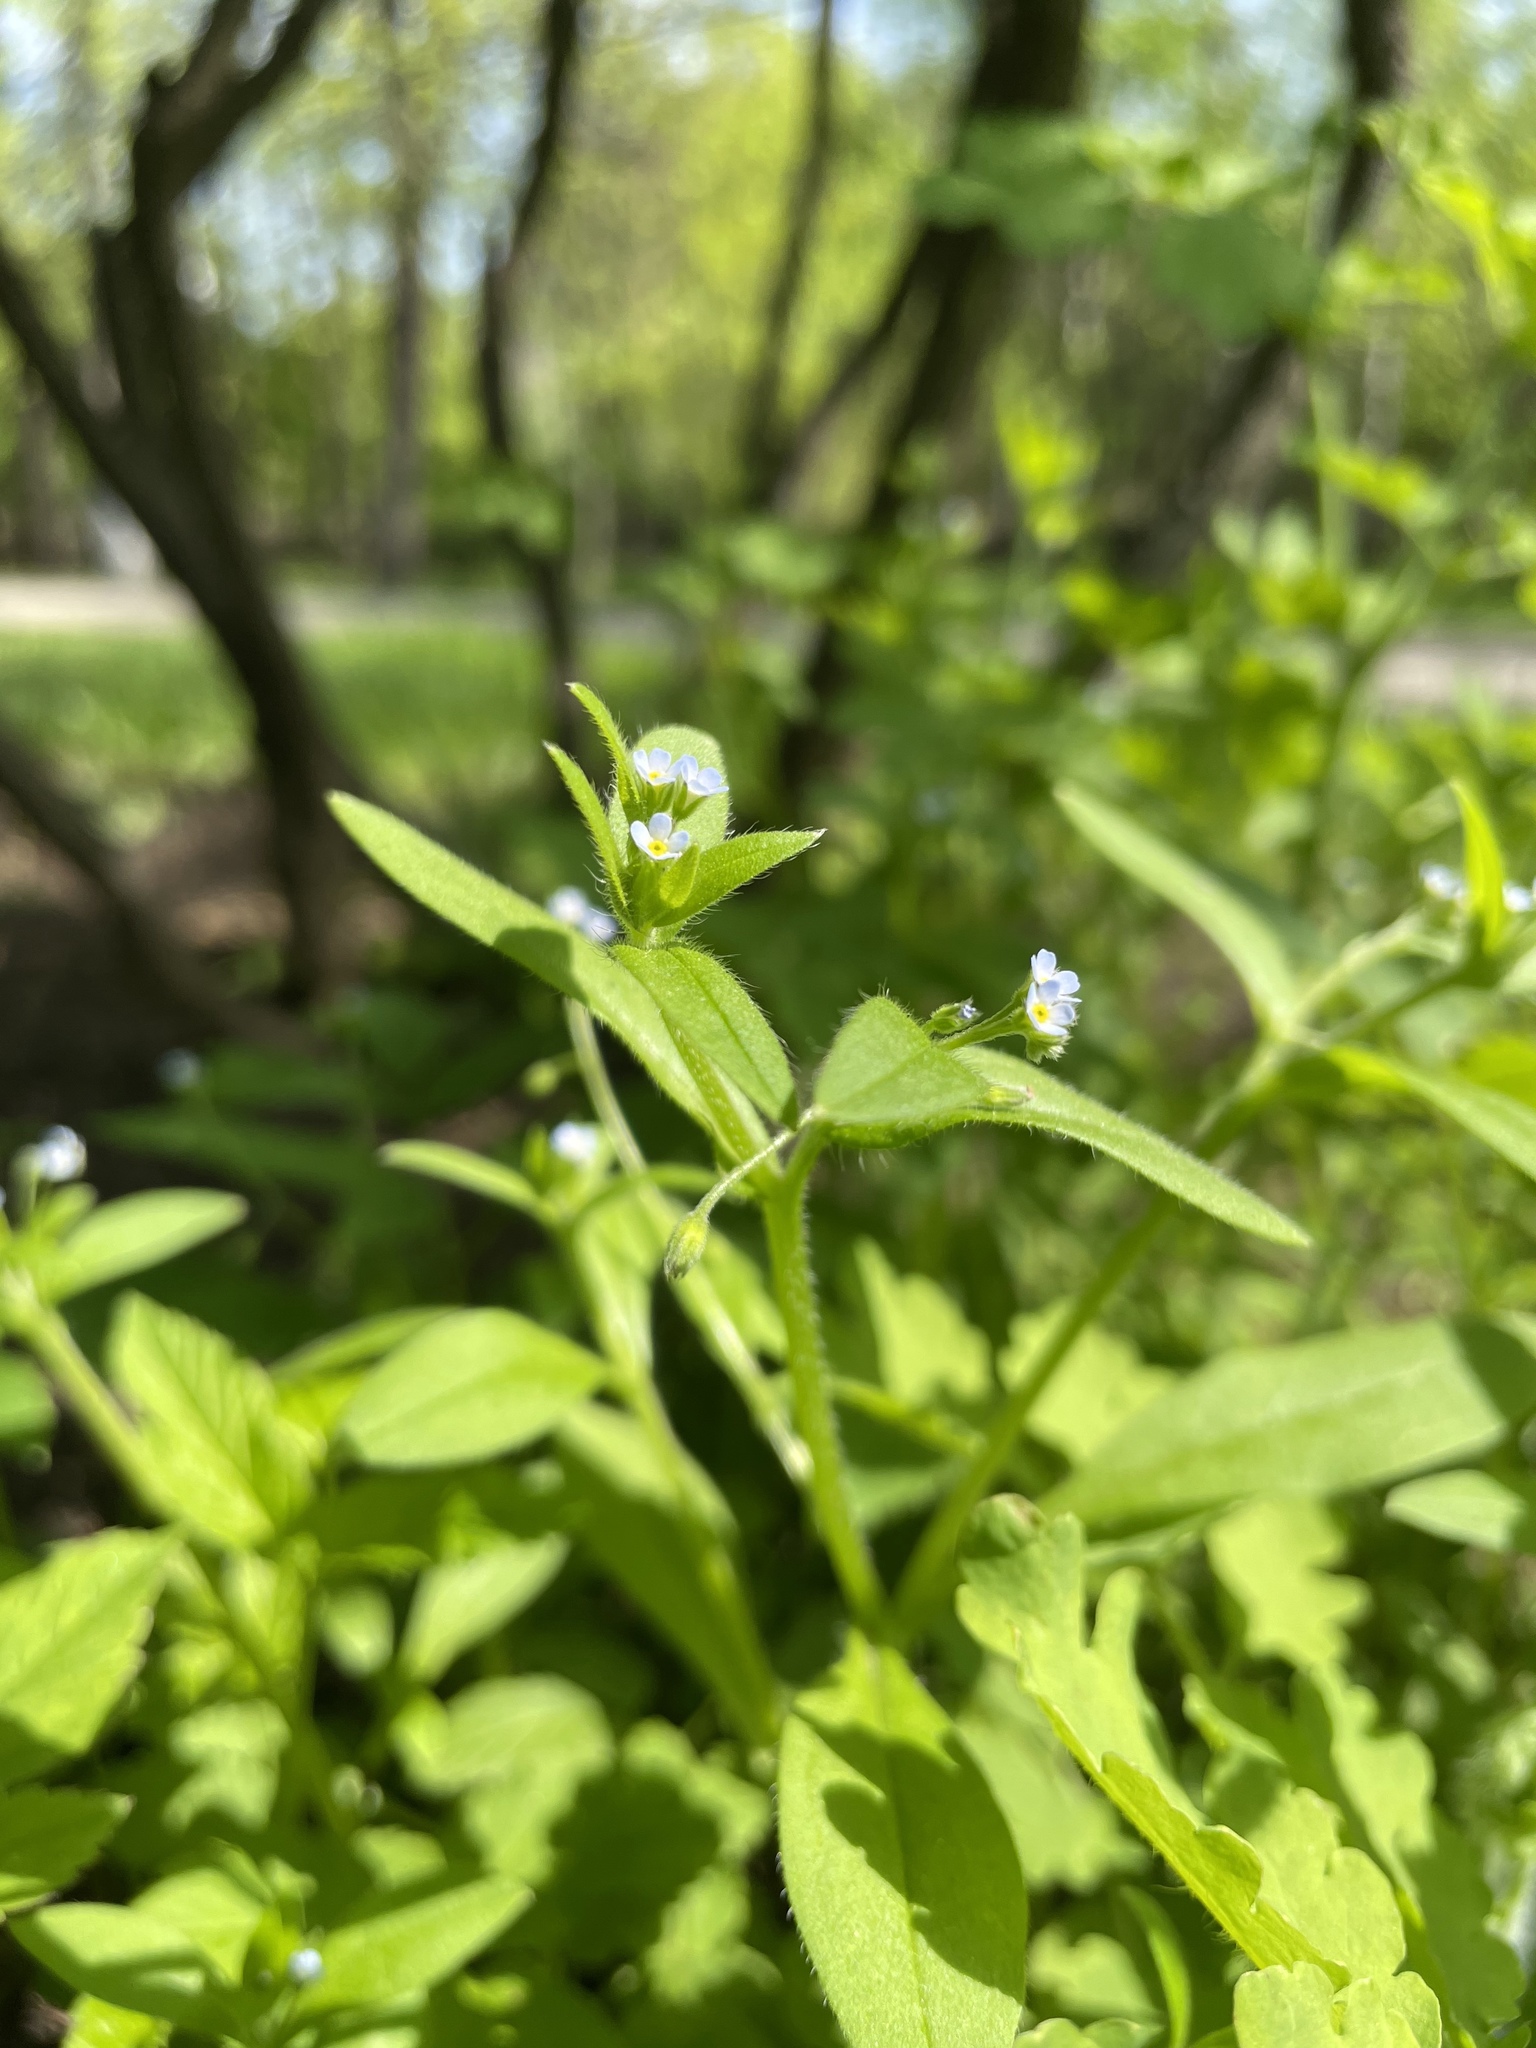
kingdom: Plantae
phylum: Tracheophyta
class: Magnoliopsida
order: Boraginales
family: Boraginaceae
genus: Myosotis
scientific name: Myosotis sparsiflora
